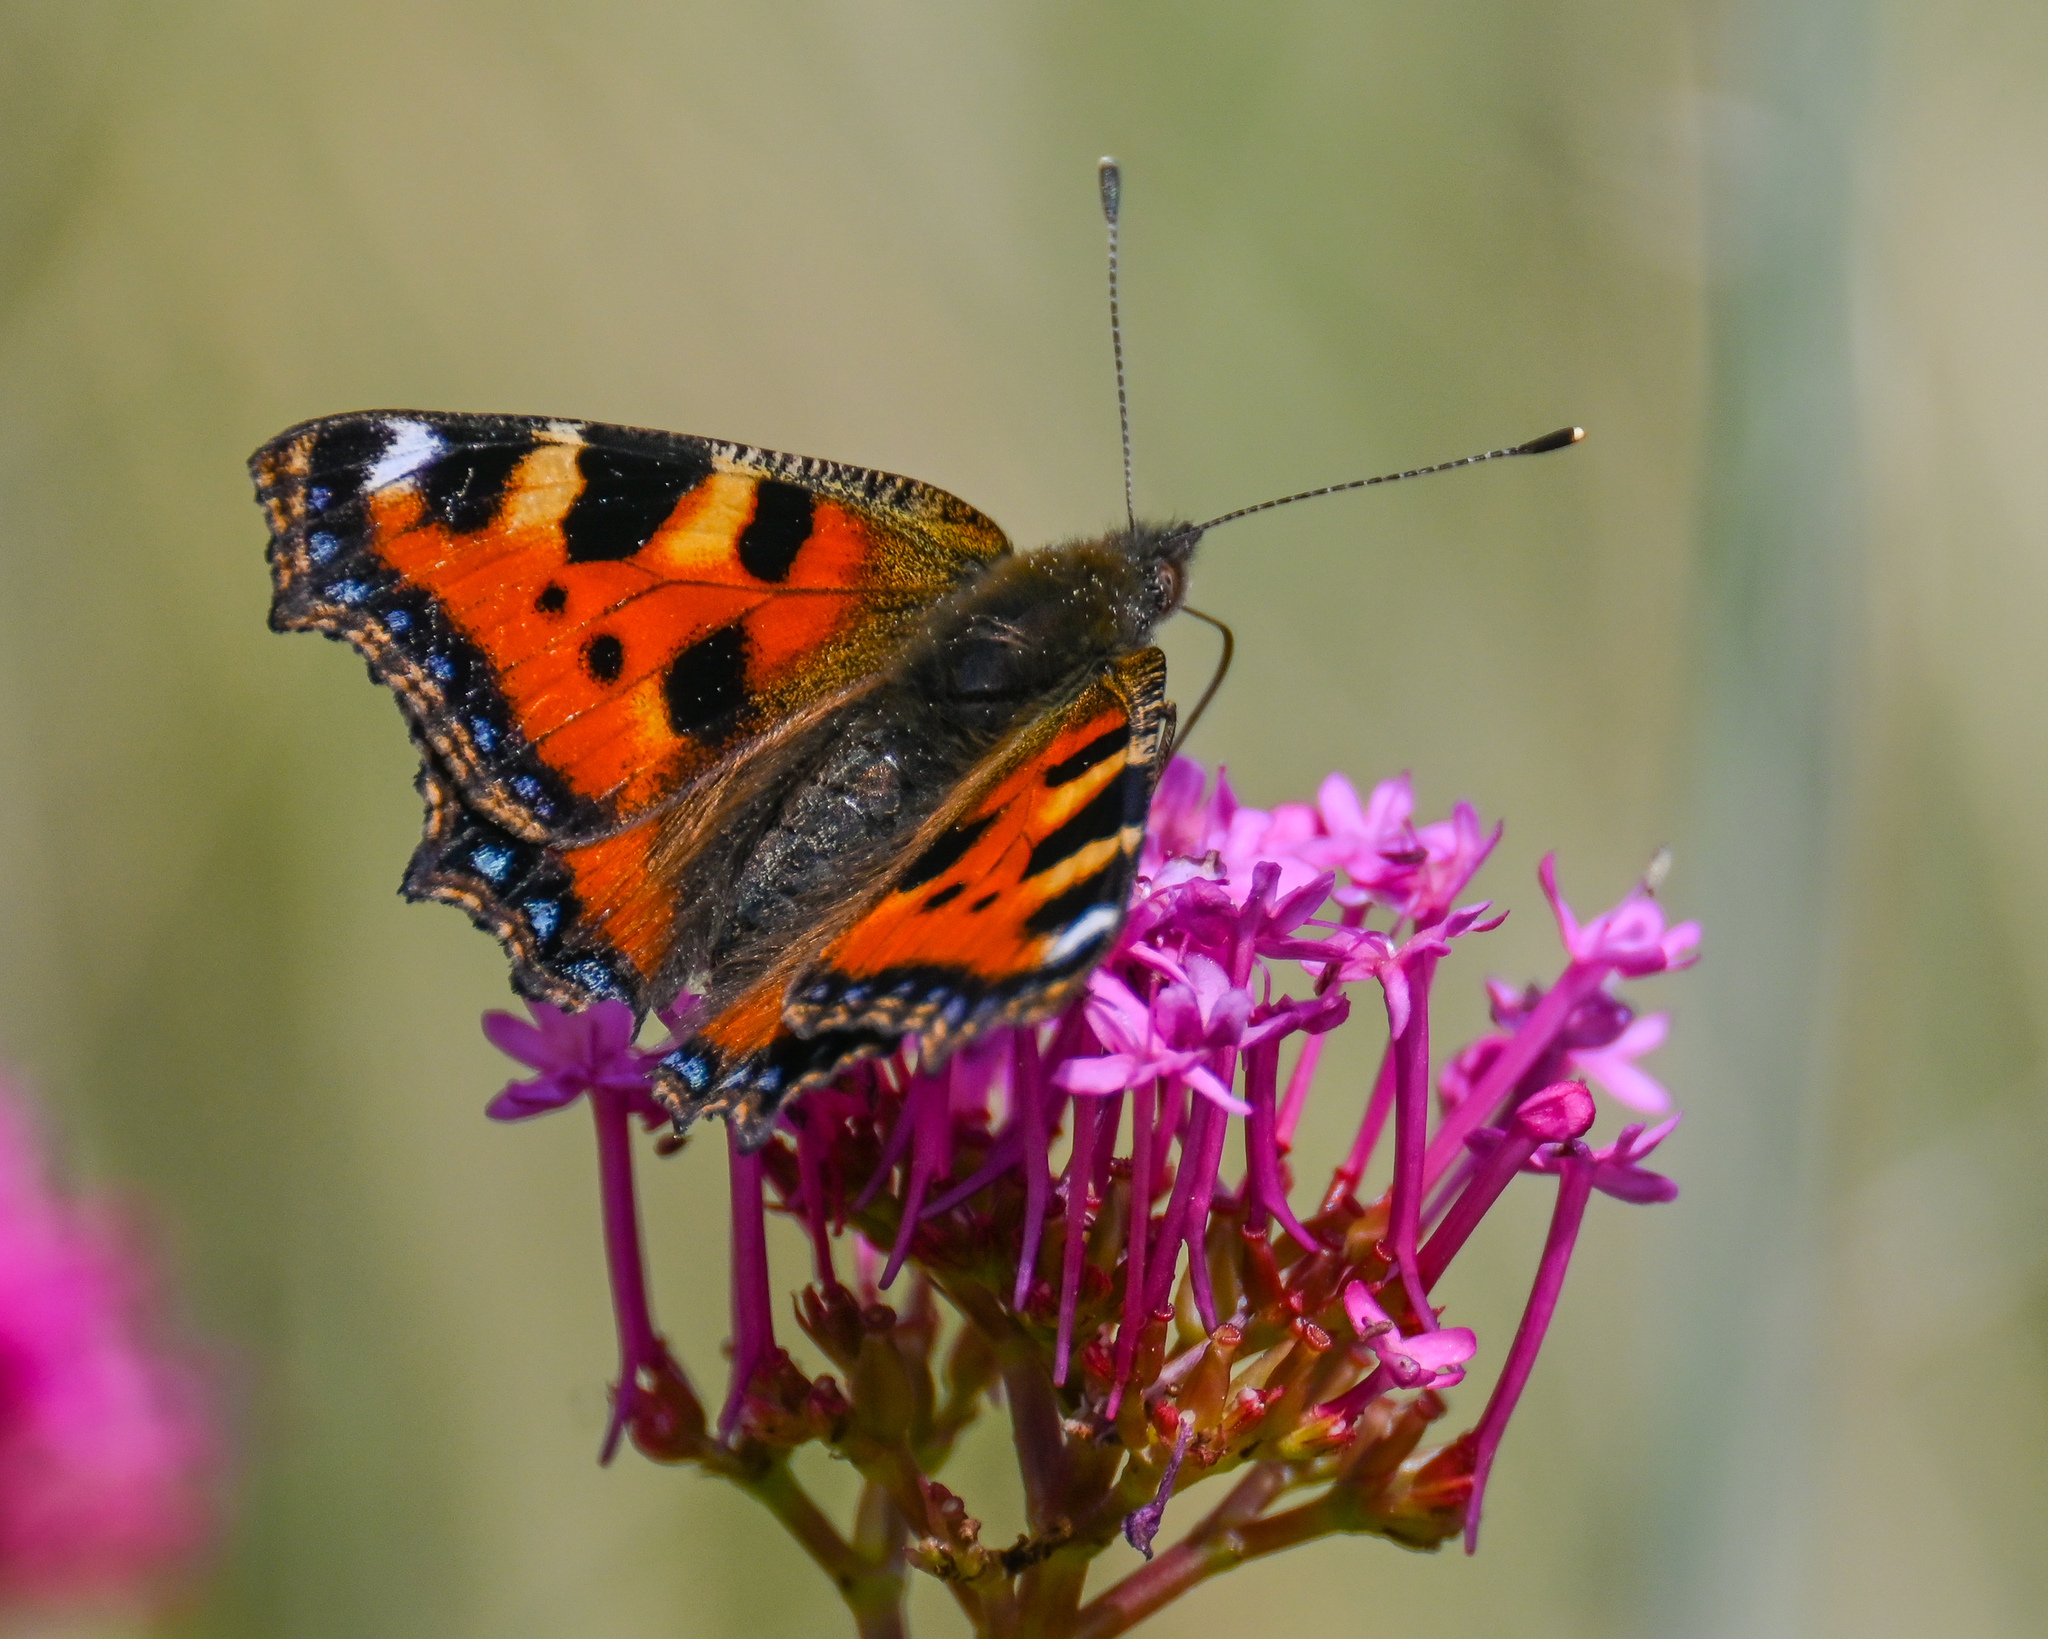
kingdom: Animalia
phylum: Arthropoda
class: Insecta
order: Lepidoptera
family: Nymphalidae
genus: Aglais
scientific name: Aglais urticae
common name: Small tortoiseshell
